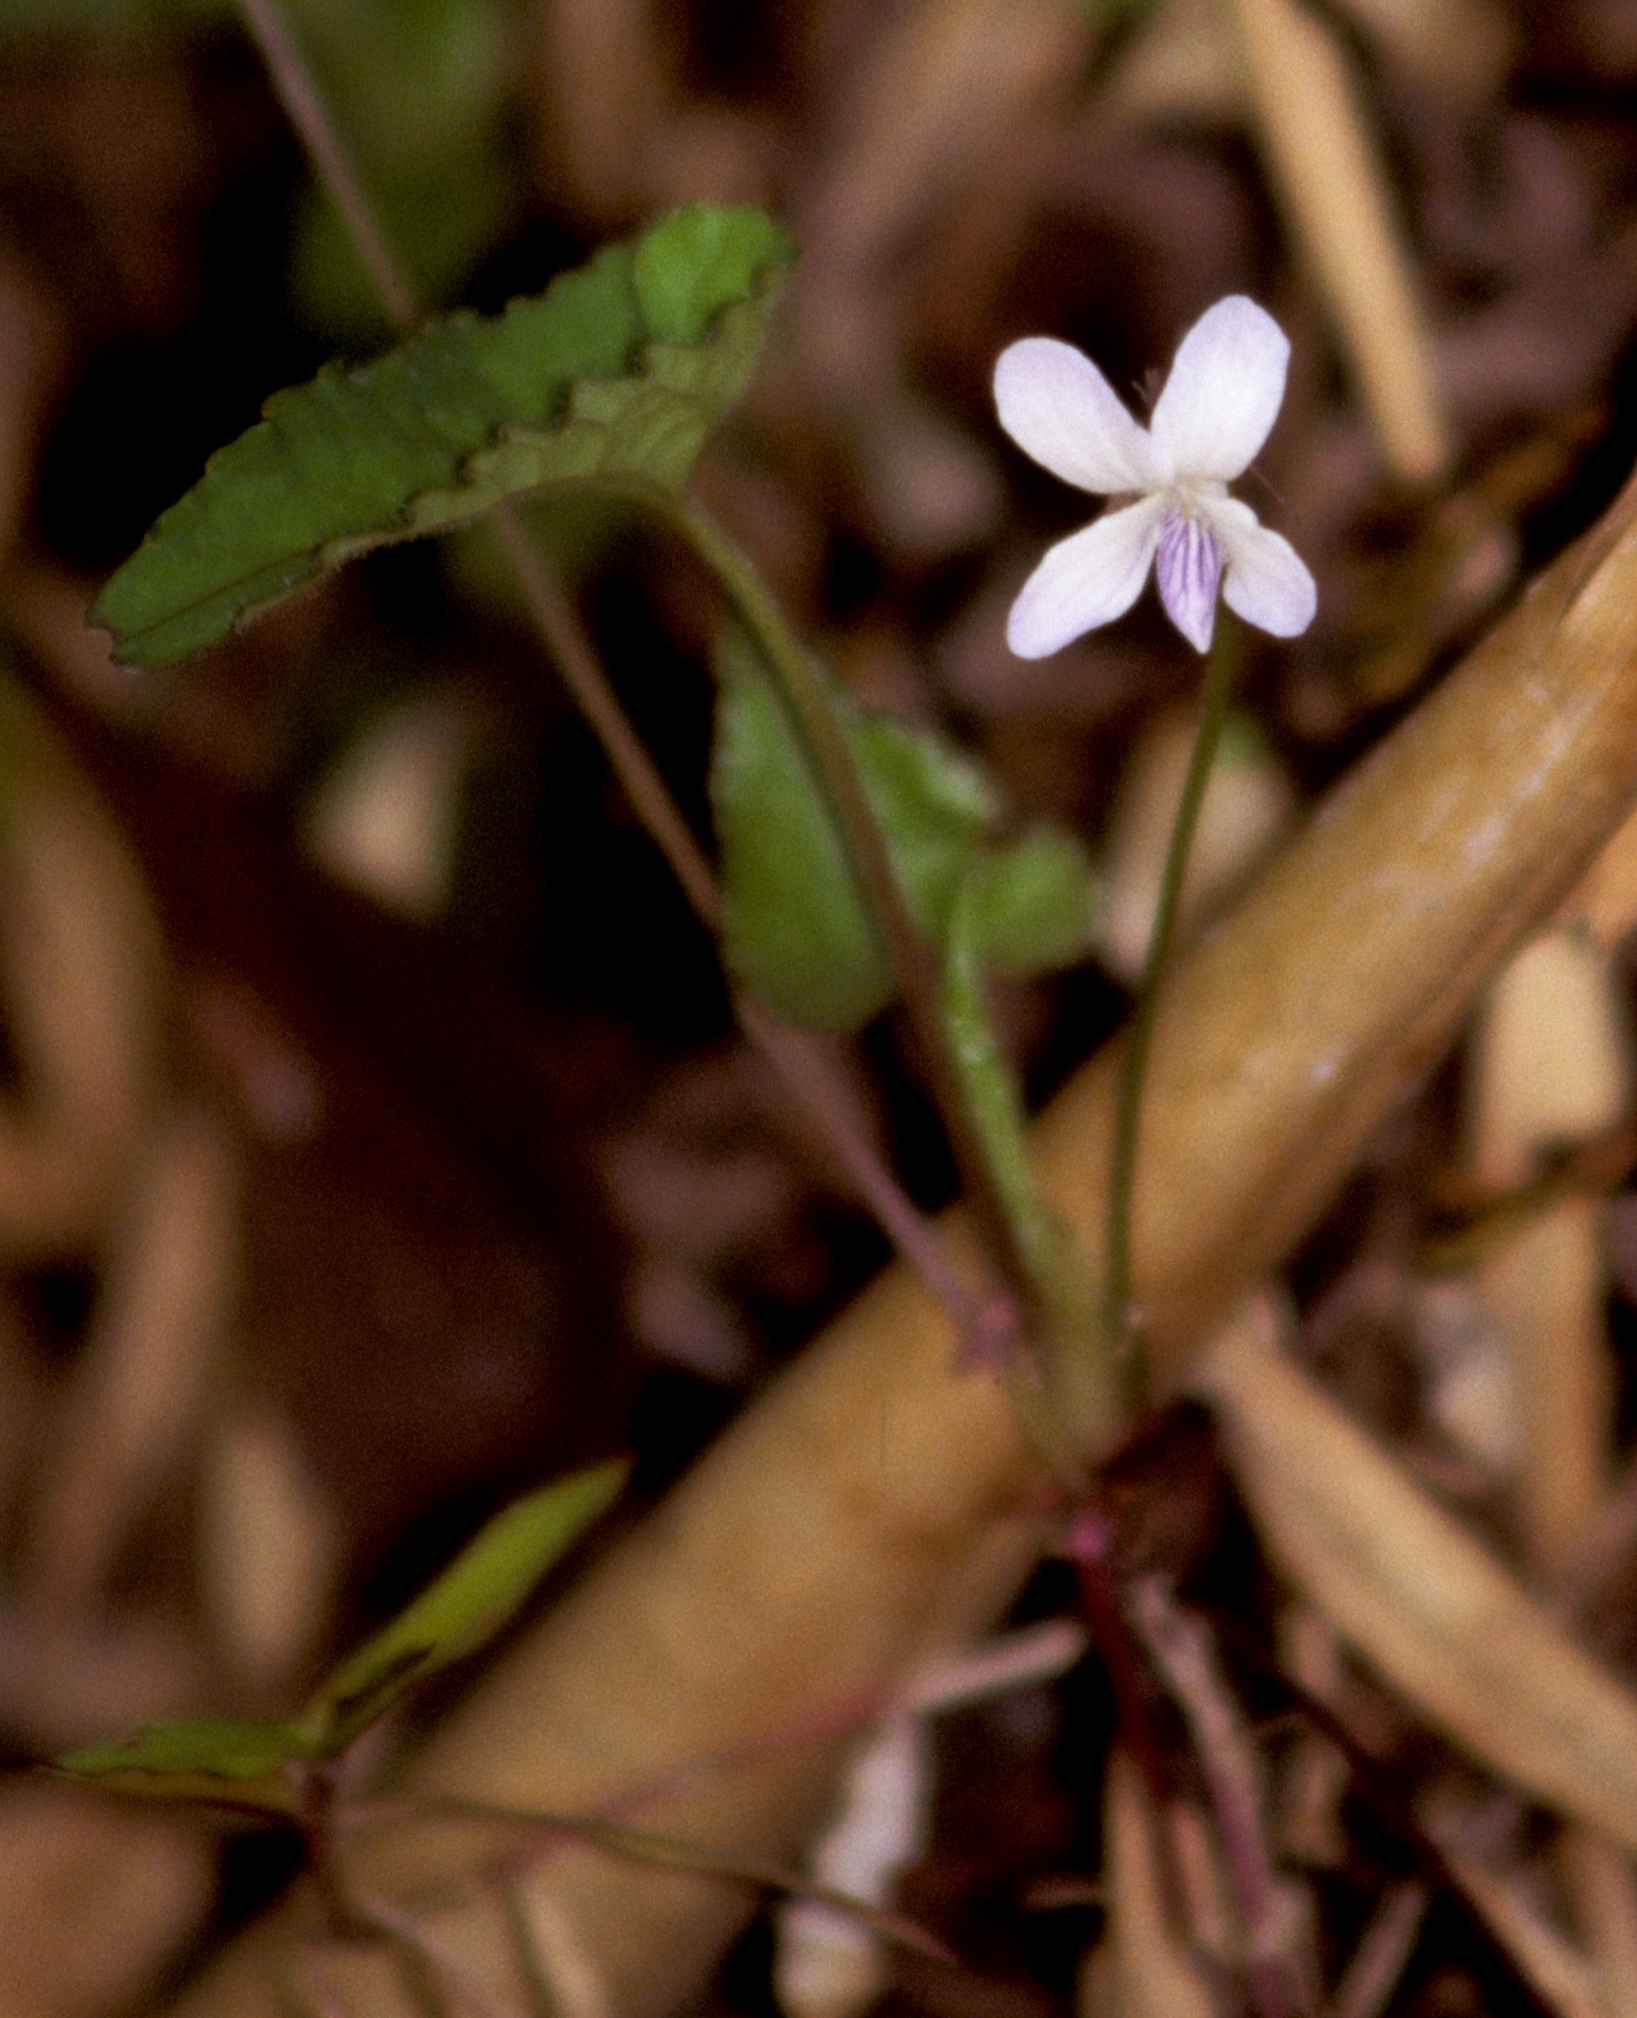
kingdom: Plantae
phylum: Tracheophyta
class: Magnoliopsida
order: Malpighiales
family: Violaceae
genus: Viola
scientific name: Viola pilosa
